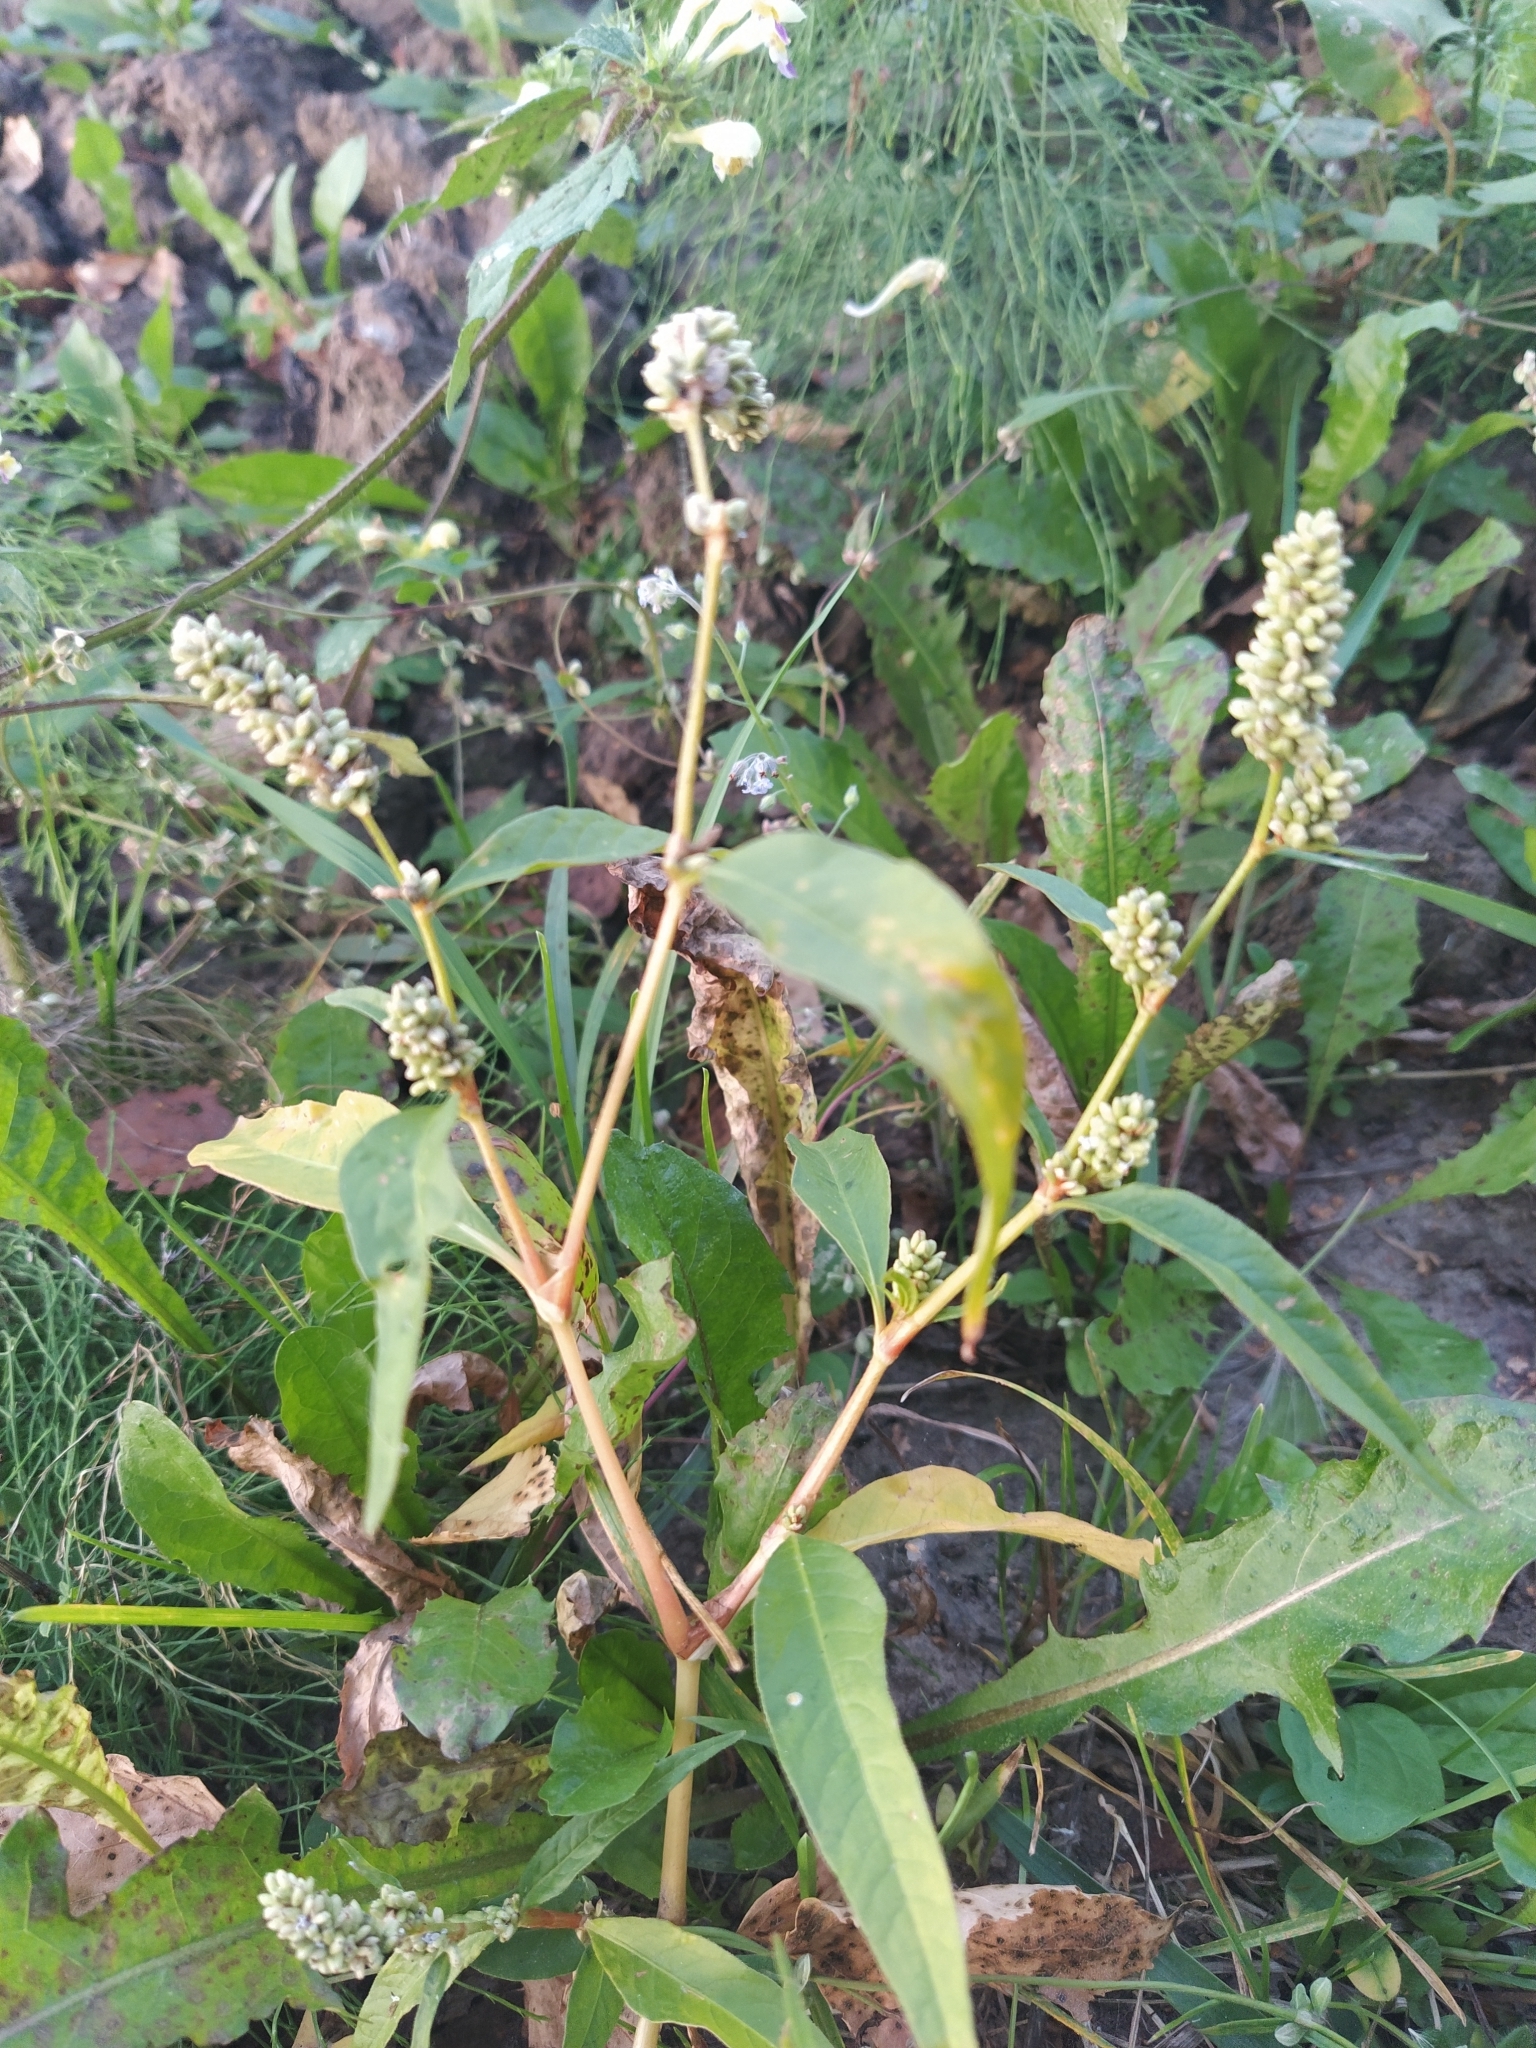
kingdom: Plantae
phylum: Tracheophyta
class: Magnoliopsida
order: Caryophyllales
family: Polygonaceae
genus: Persicaria
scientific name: Persicaria lapathifolia
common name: Curlytop knotweed
